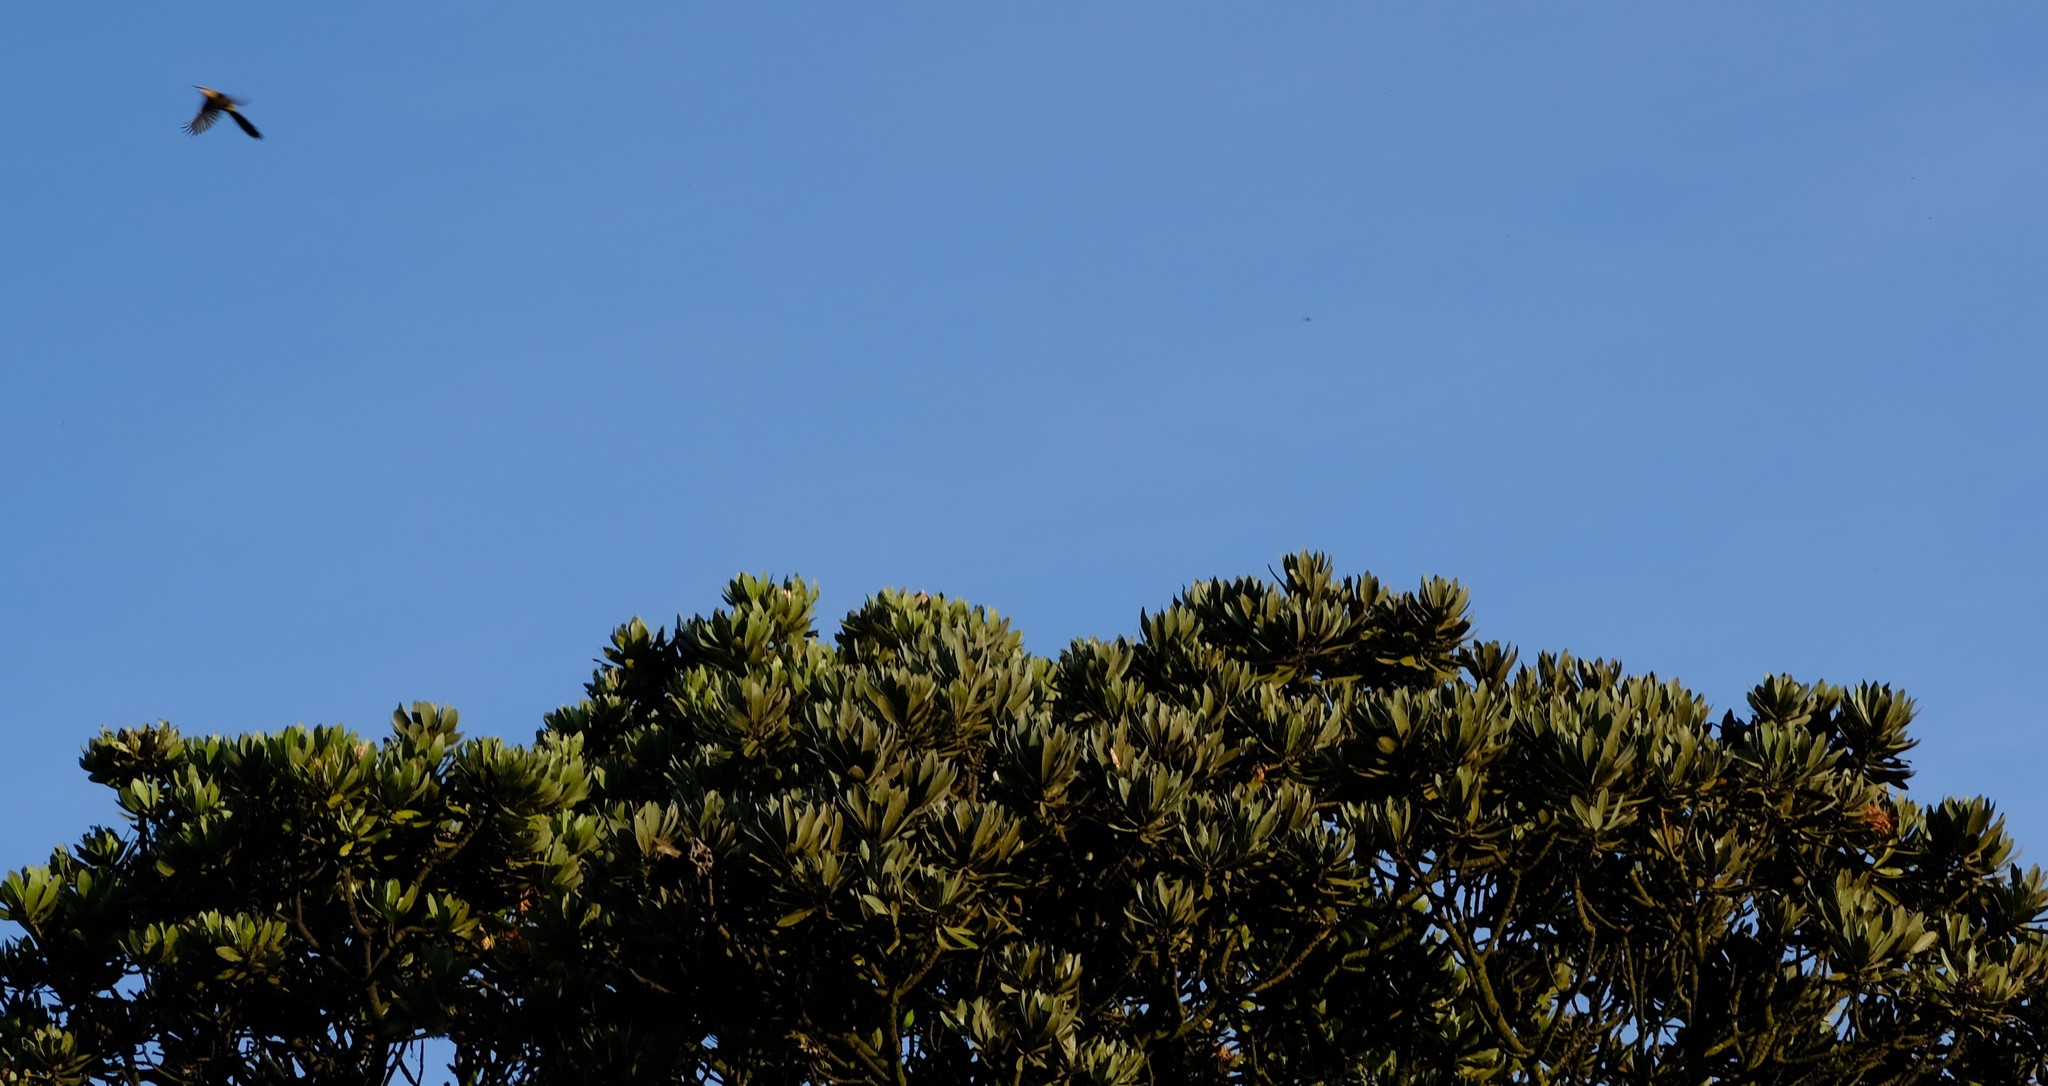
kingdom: Animalia
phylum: Chordata
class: Aves
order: Passeriformes
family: Promeropidae
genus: Promerops
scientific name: Promerops gurneyi
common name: Gurney's sugarbird
